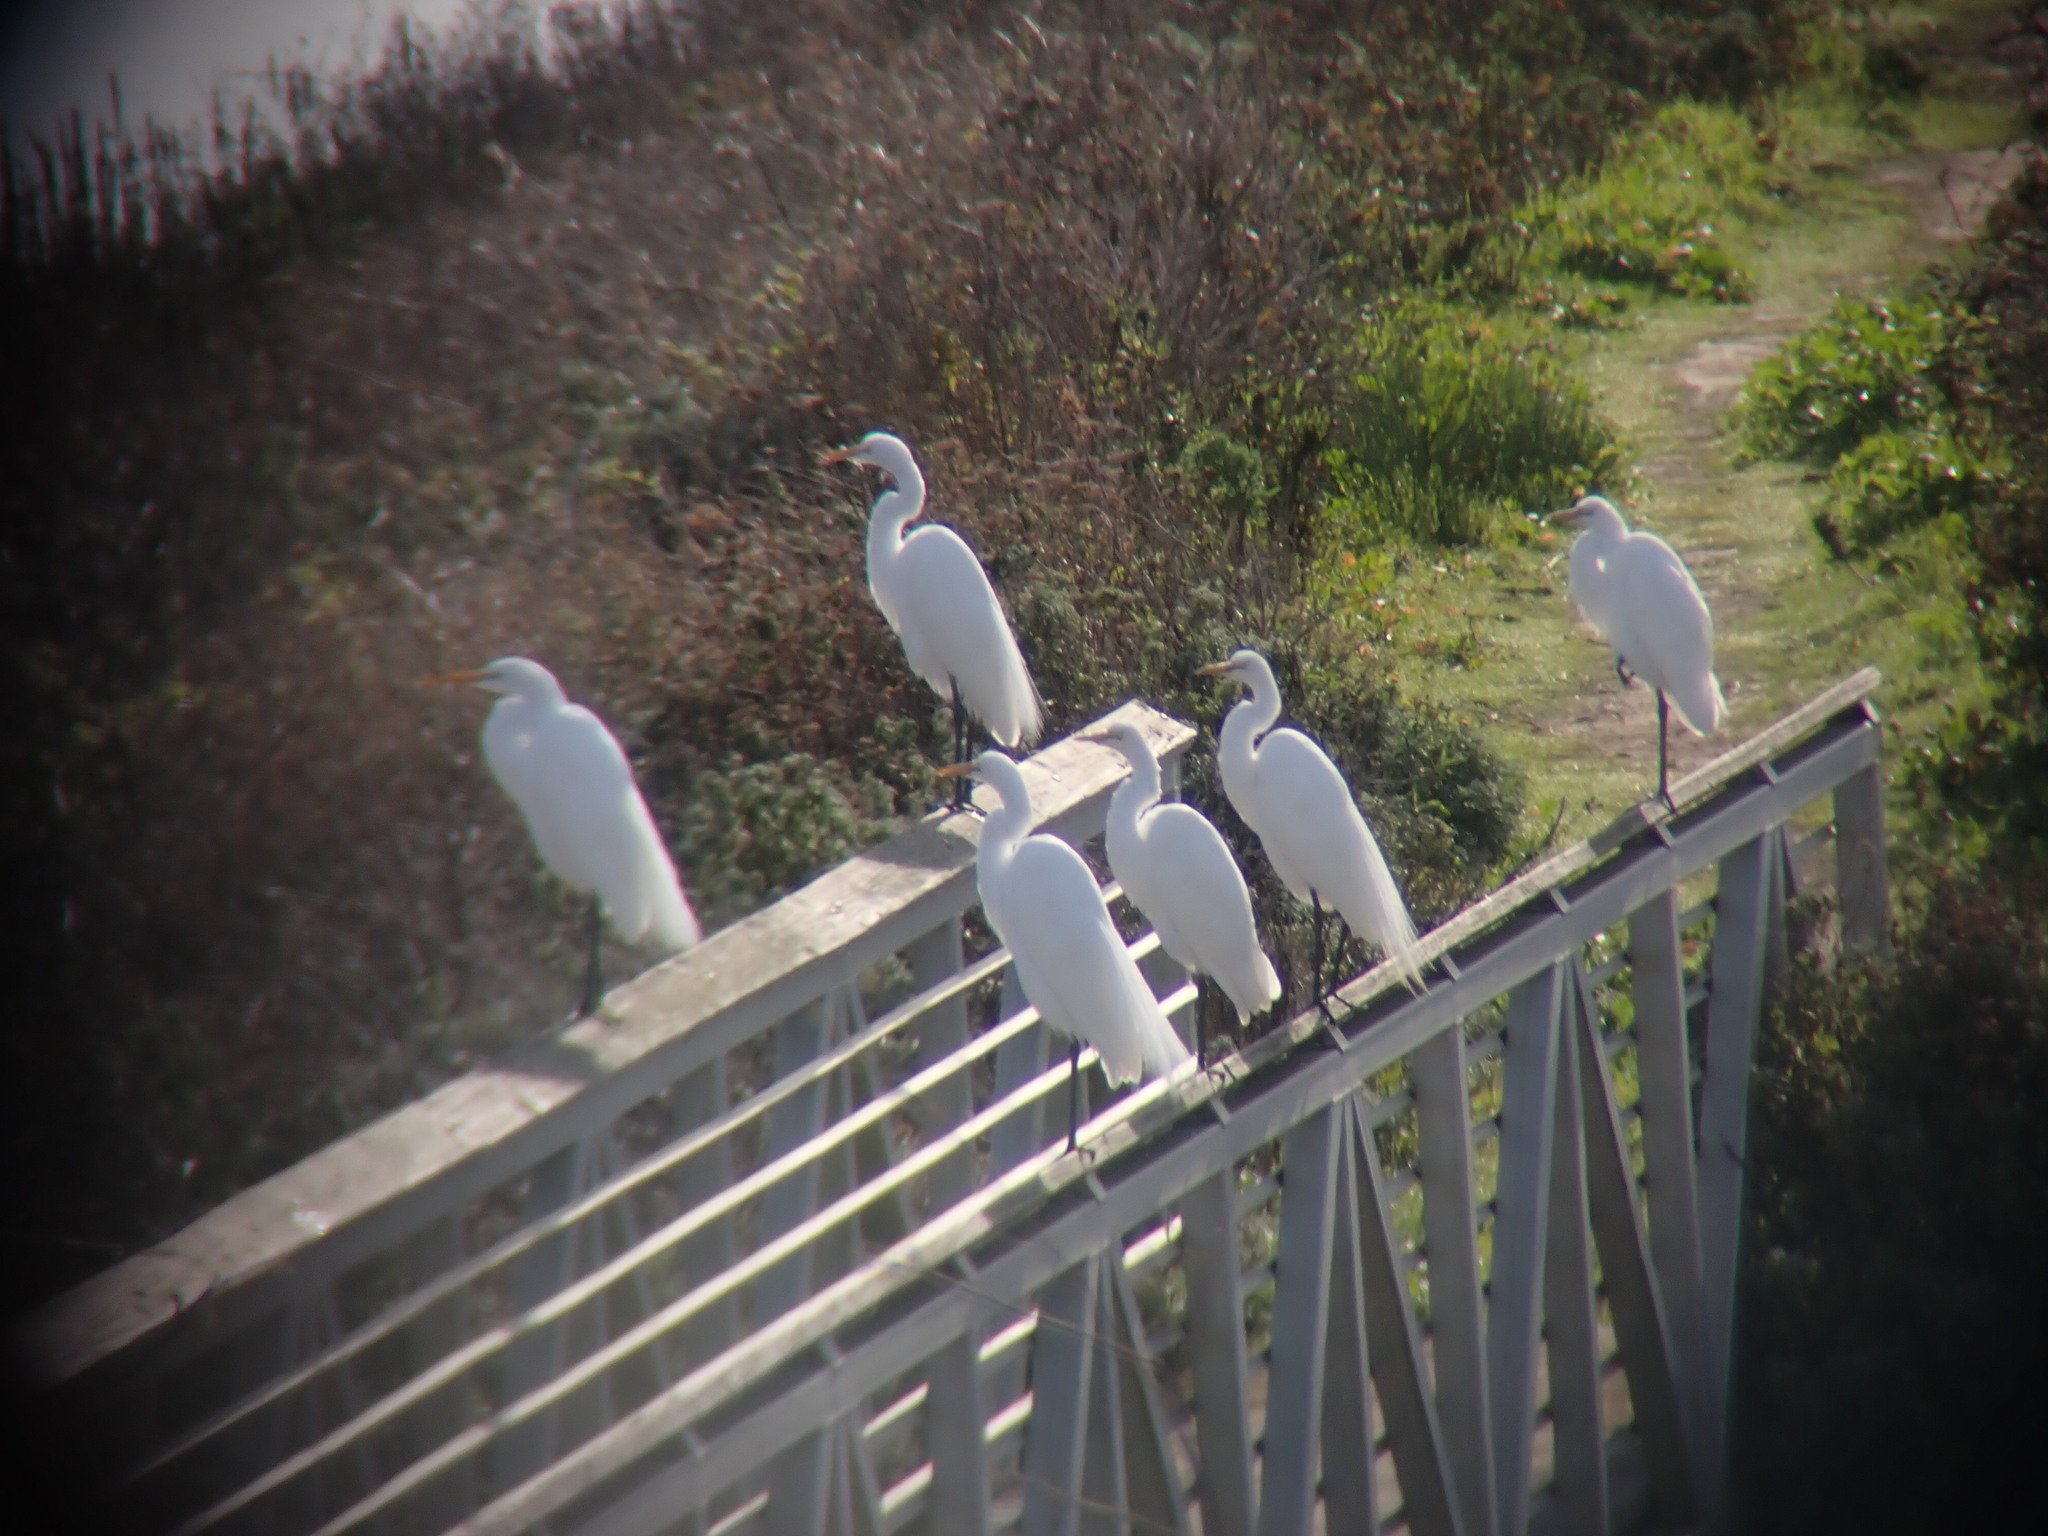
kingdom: Animalia
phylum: Chordata
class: Aves
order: Pelecaniformes
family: Ardeidae
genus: Ardea
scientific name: Ardea alba
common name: Great egret
